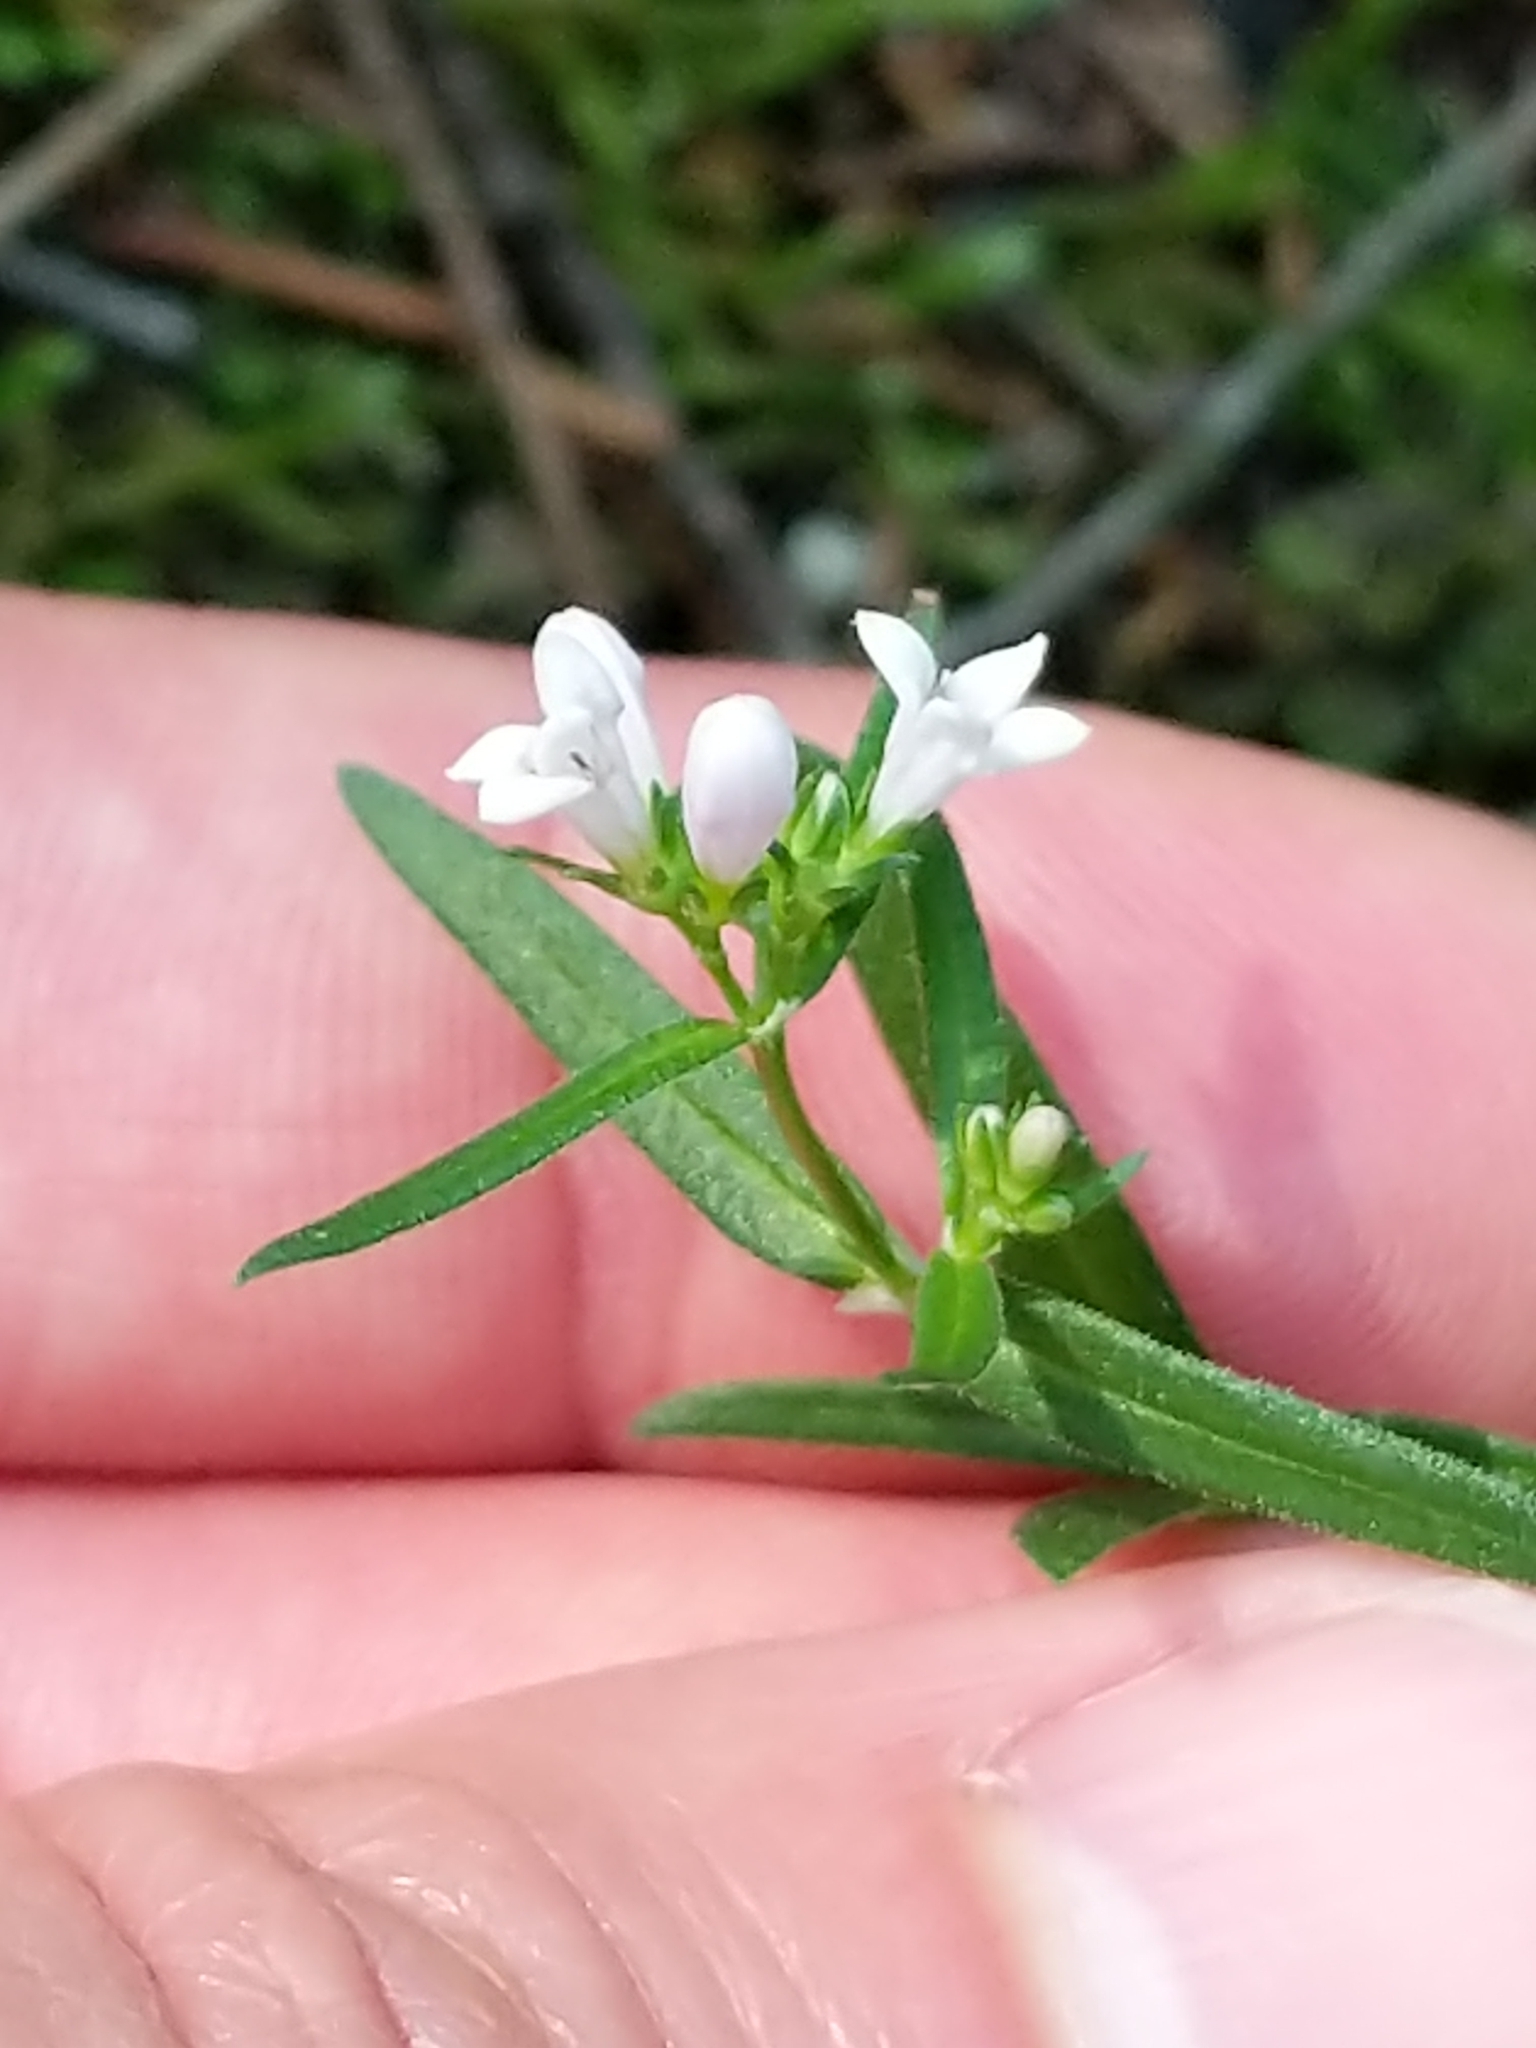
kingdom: Plantae
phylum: Tracheophyta
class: Magnoliopsida
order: Gentianales
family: Rubiaceae
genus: Houstonia
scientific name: Houstonia longifolia
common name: Long-leaved bluets
